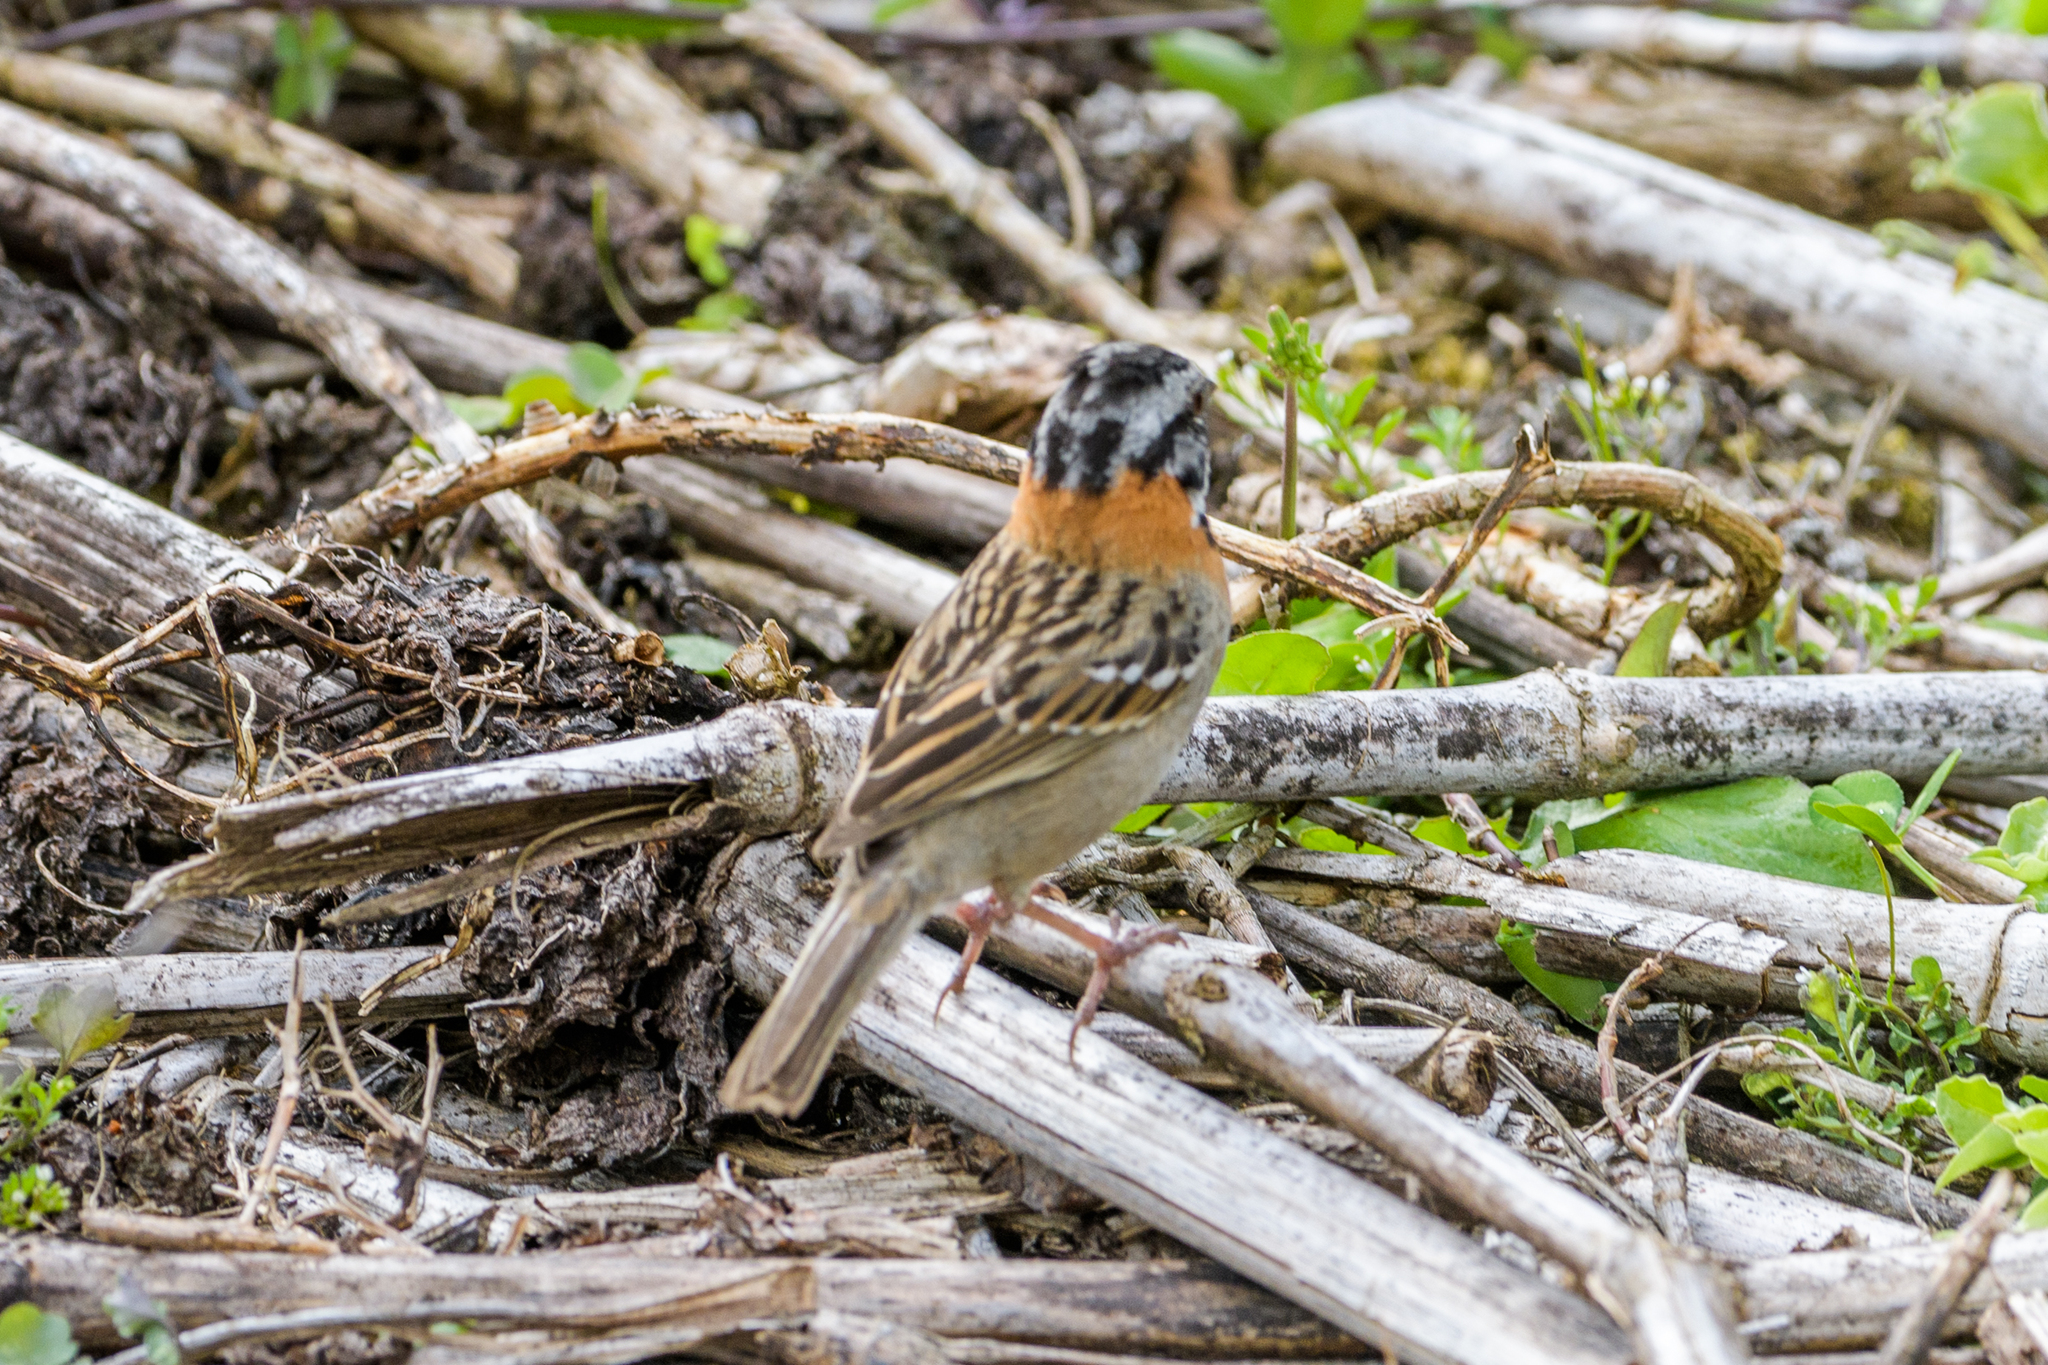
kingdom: Animalia
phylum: Chordata
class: Aves
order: Passeriformes
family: Passerellidae
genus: Zonotrichia
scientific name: Zonotrichia capensis
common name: Rufous-collared sparrow
